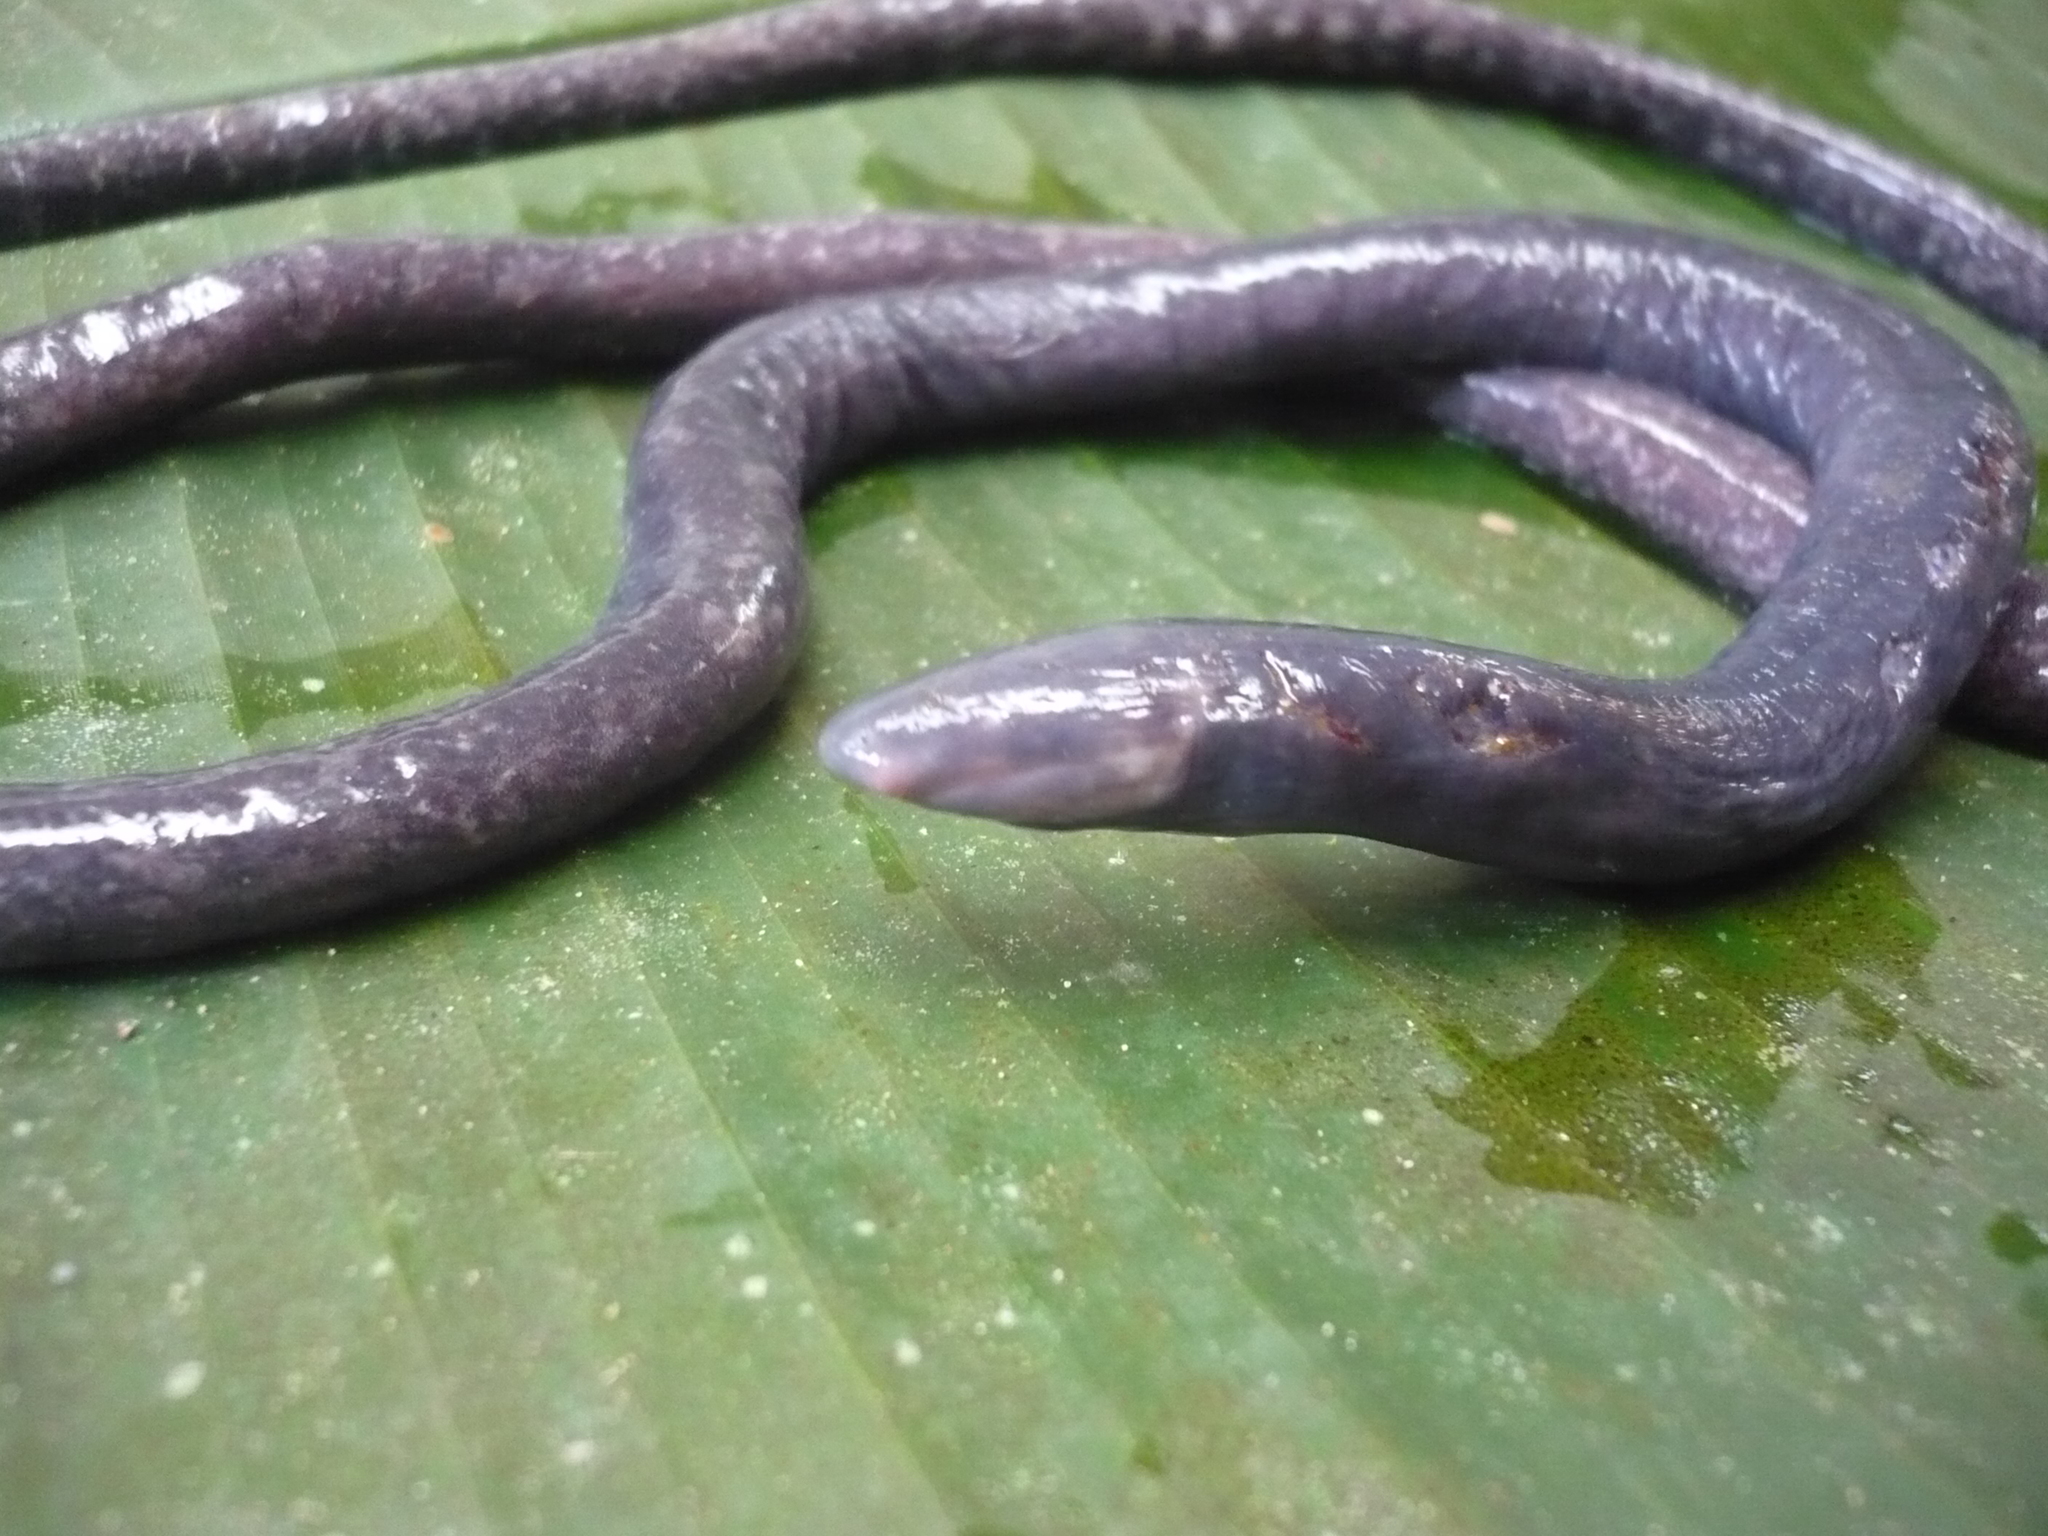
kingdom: Animalia
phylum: Chordata
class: Amphibia
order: Gymnophiona
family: Caeciliidae
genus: Oscaecilia
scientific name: Oscaecilia bassleri
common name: Pastaza river caecilian
